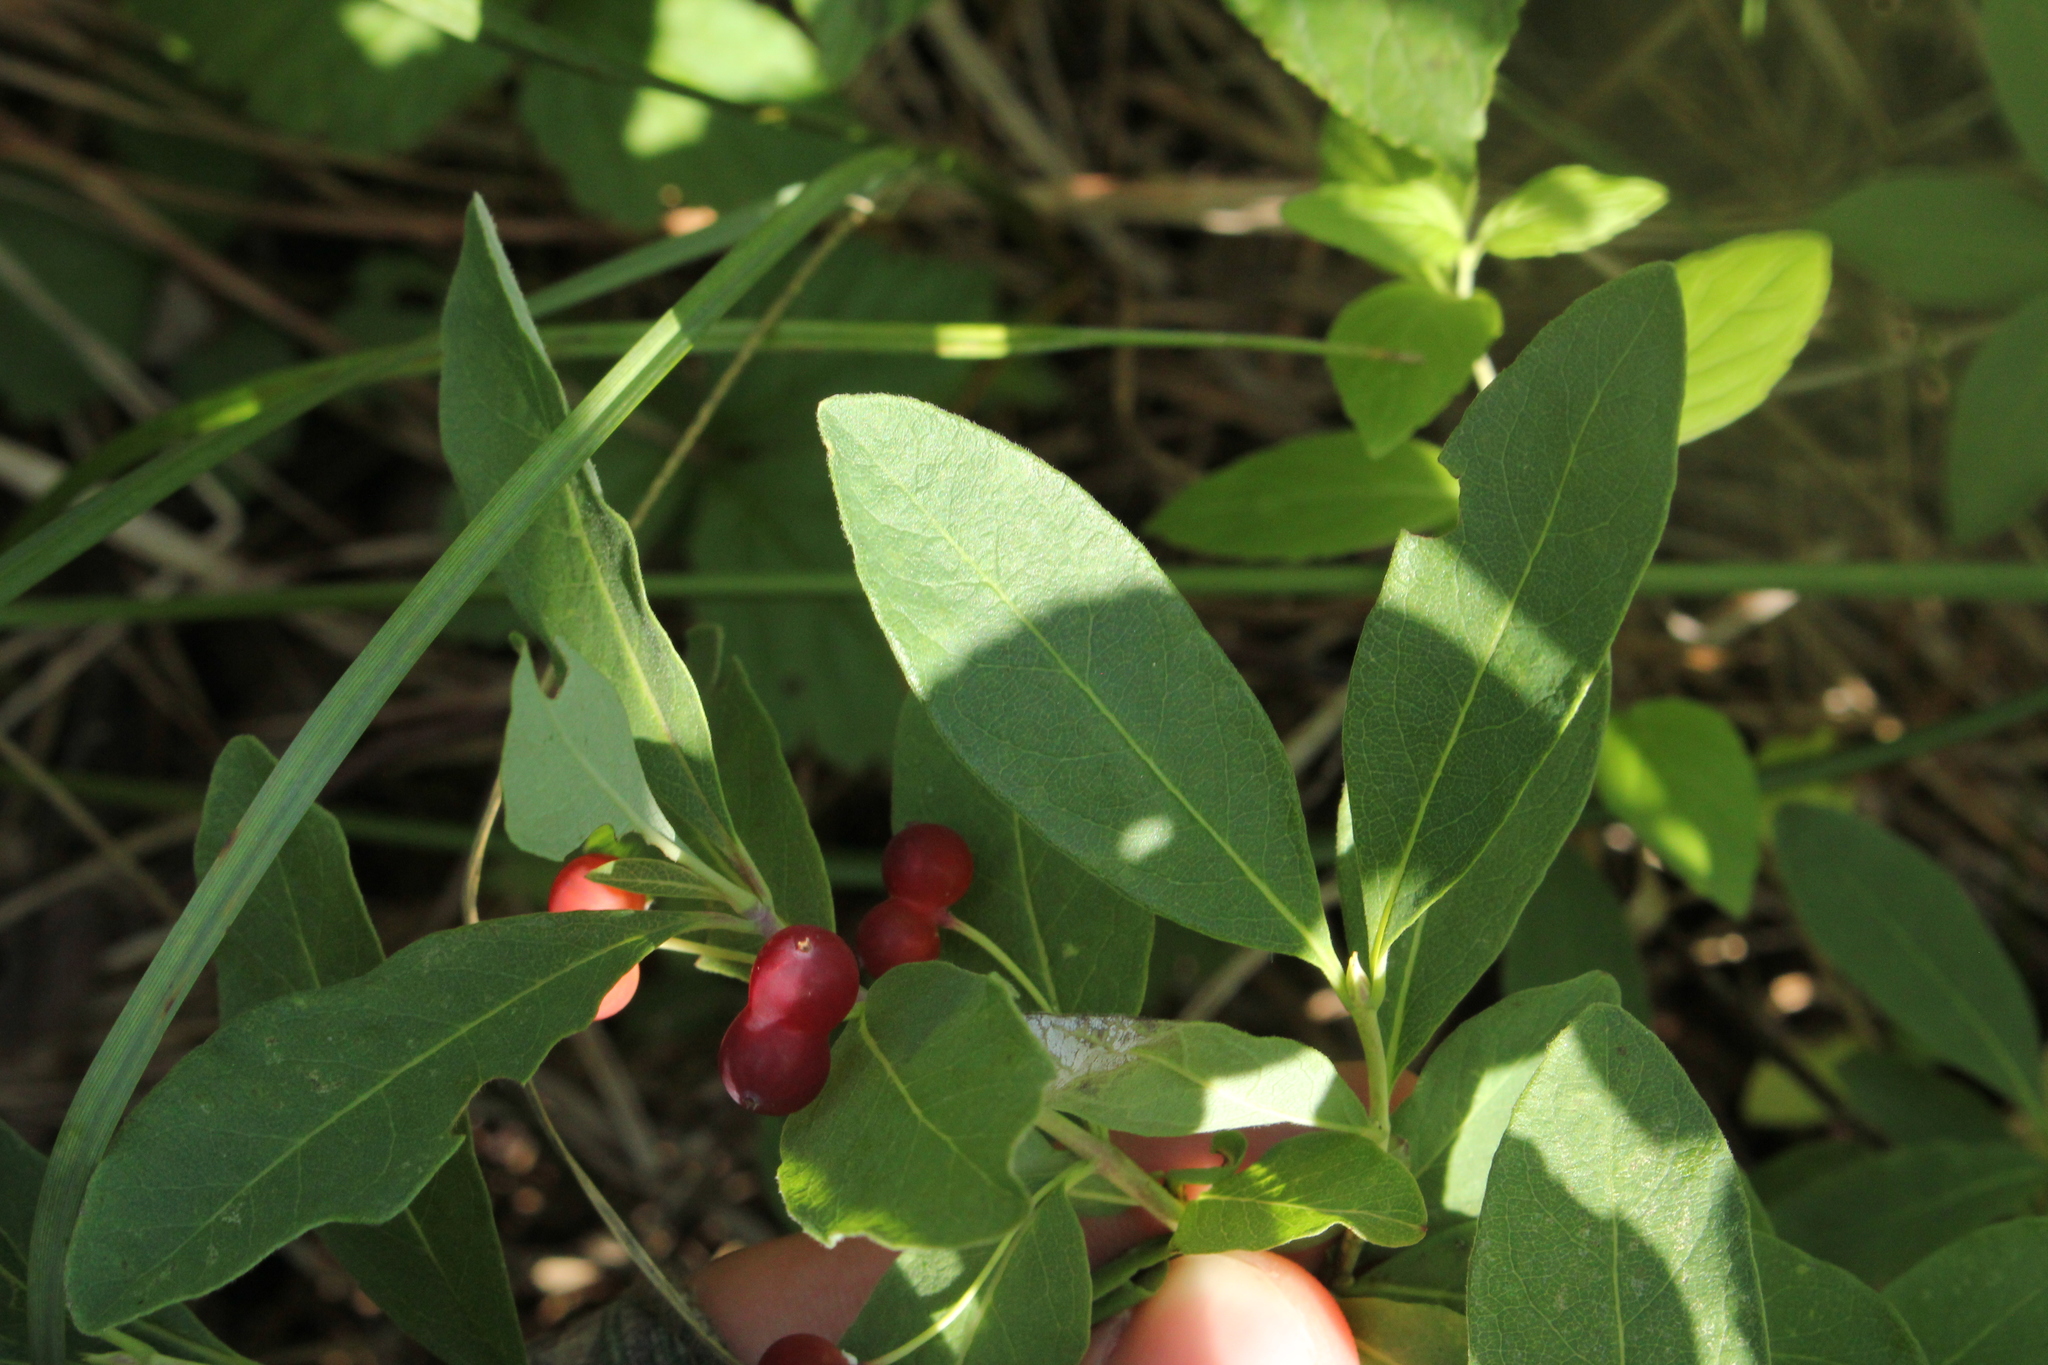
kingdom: Plantae
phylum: Tracheophyta
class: Magnoliopsida
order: Dipsacales
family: Caprifoliaceae
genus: Lonicera
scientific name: Lonicera oblongifolia
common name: Swamp fly honeysuckle
